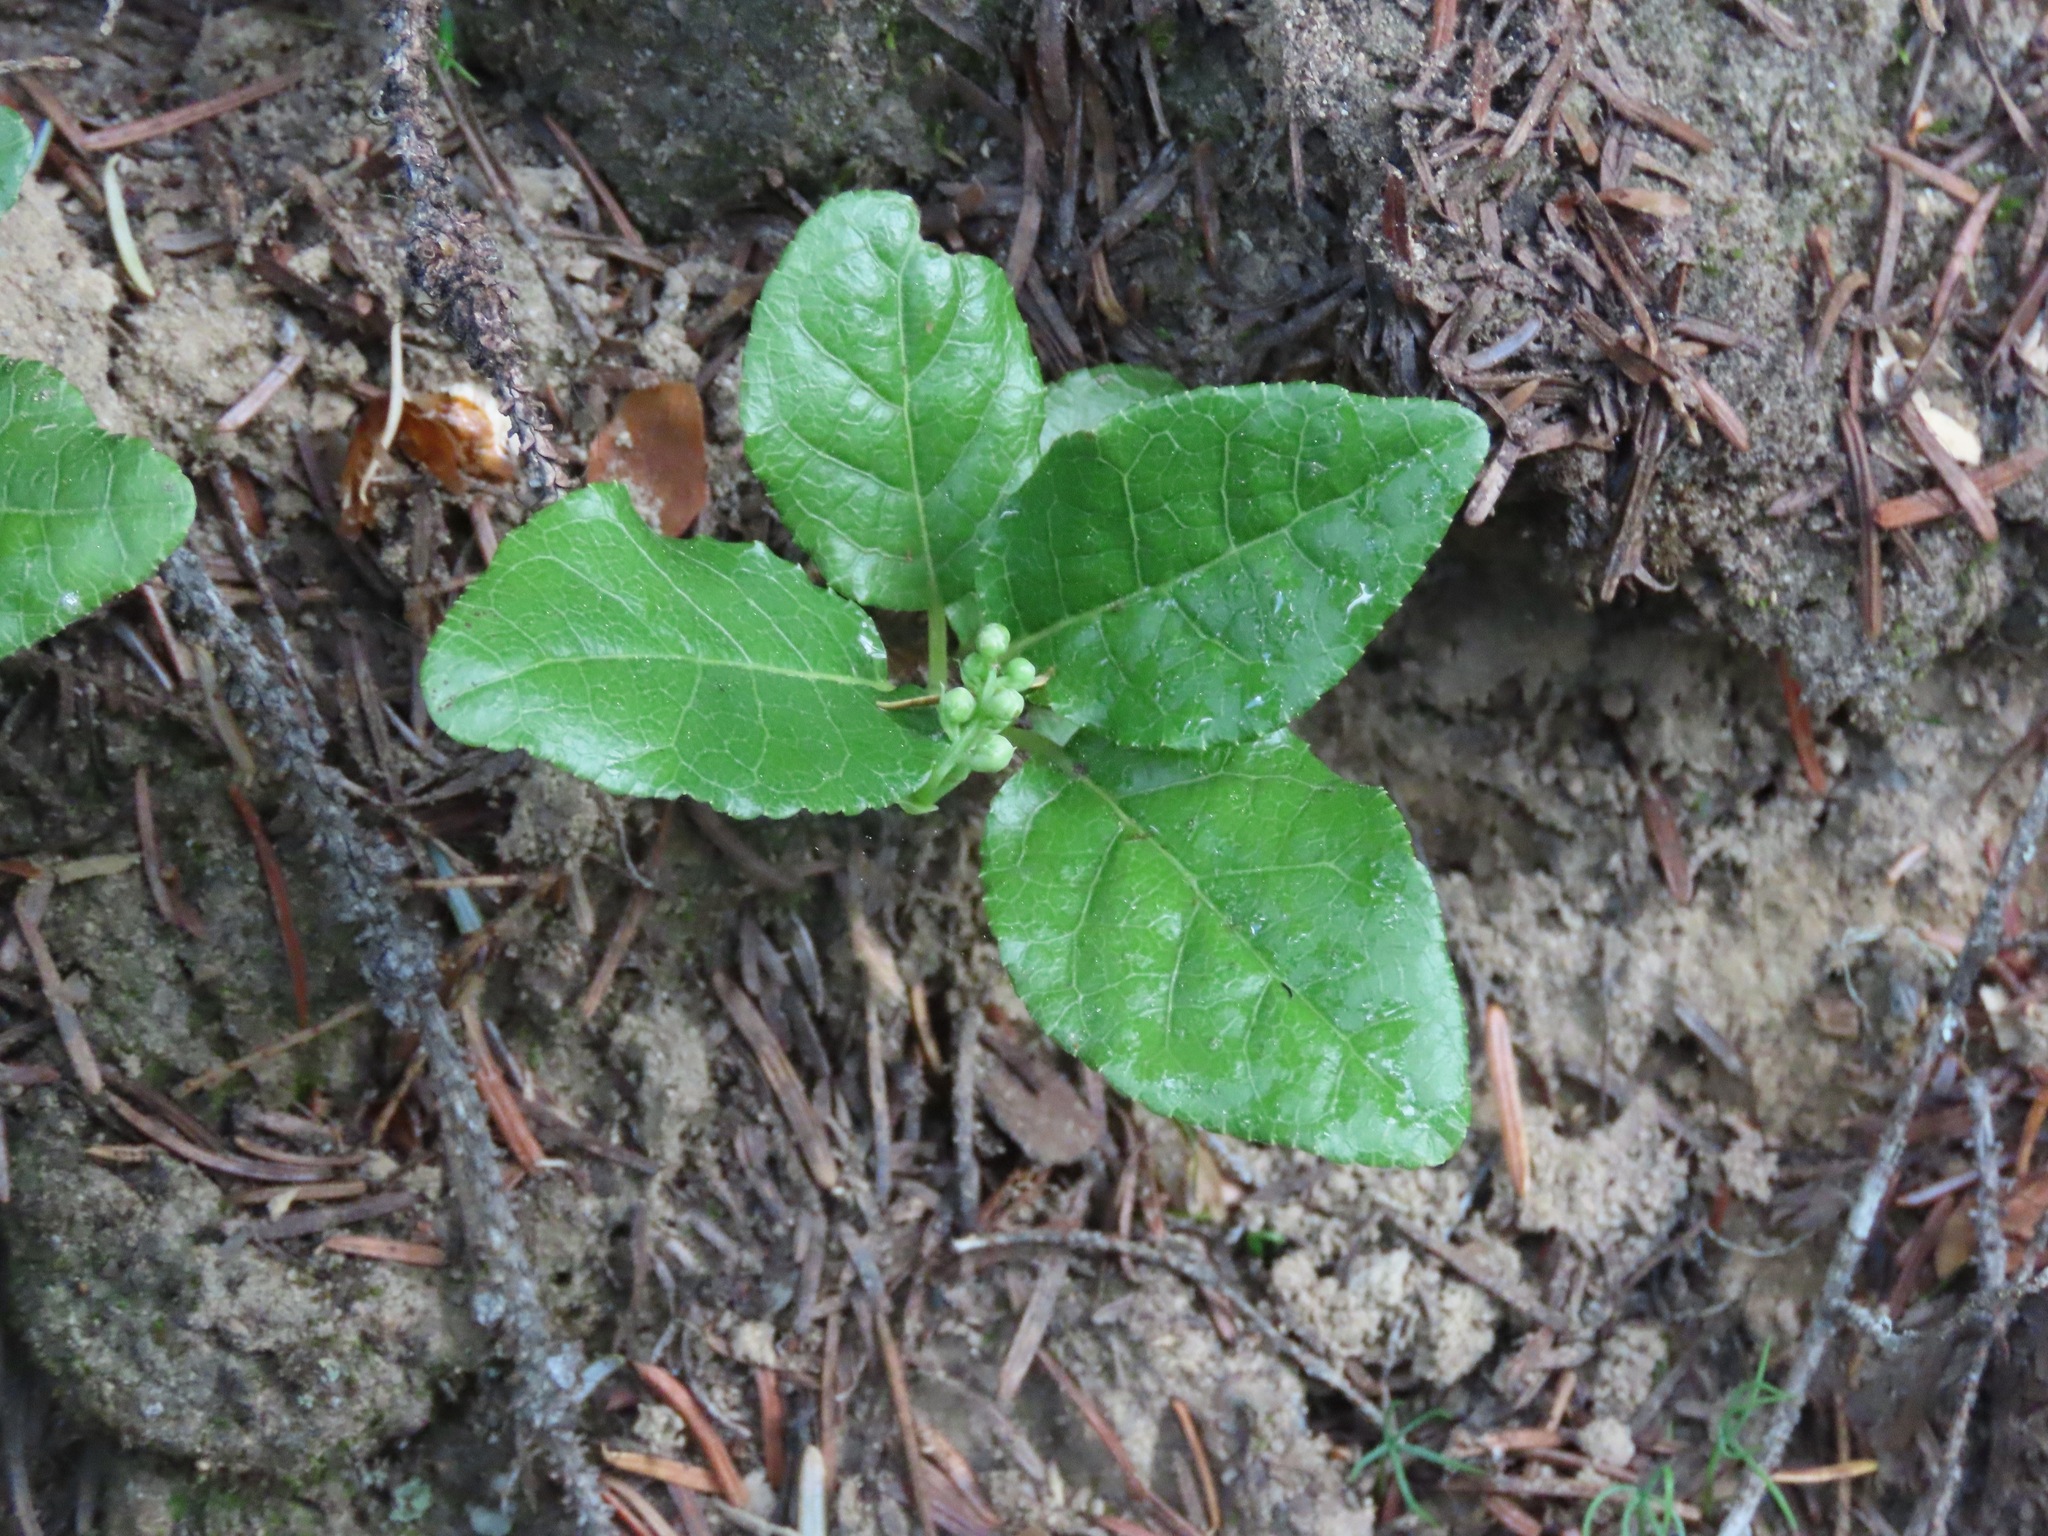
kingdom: Plantae
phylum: Tracheophyta
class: Magnoliopsida
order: Ericales
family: Ericaceae
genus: Orthilia
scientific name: Orthilia secunda
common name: One-sided orthilia
